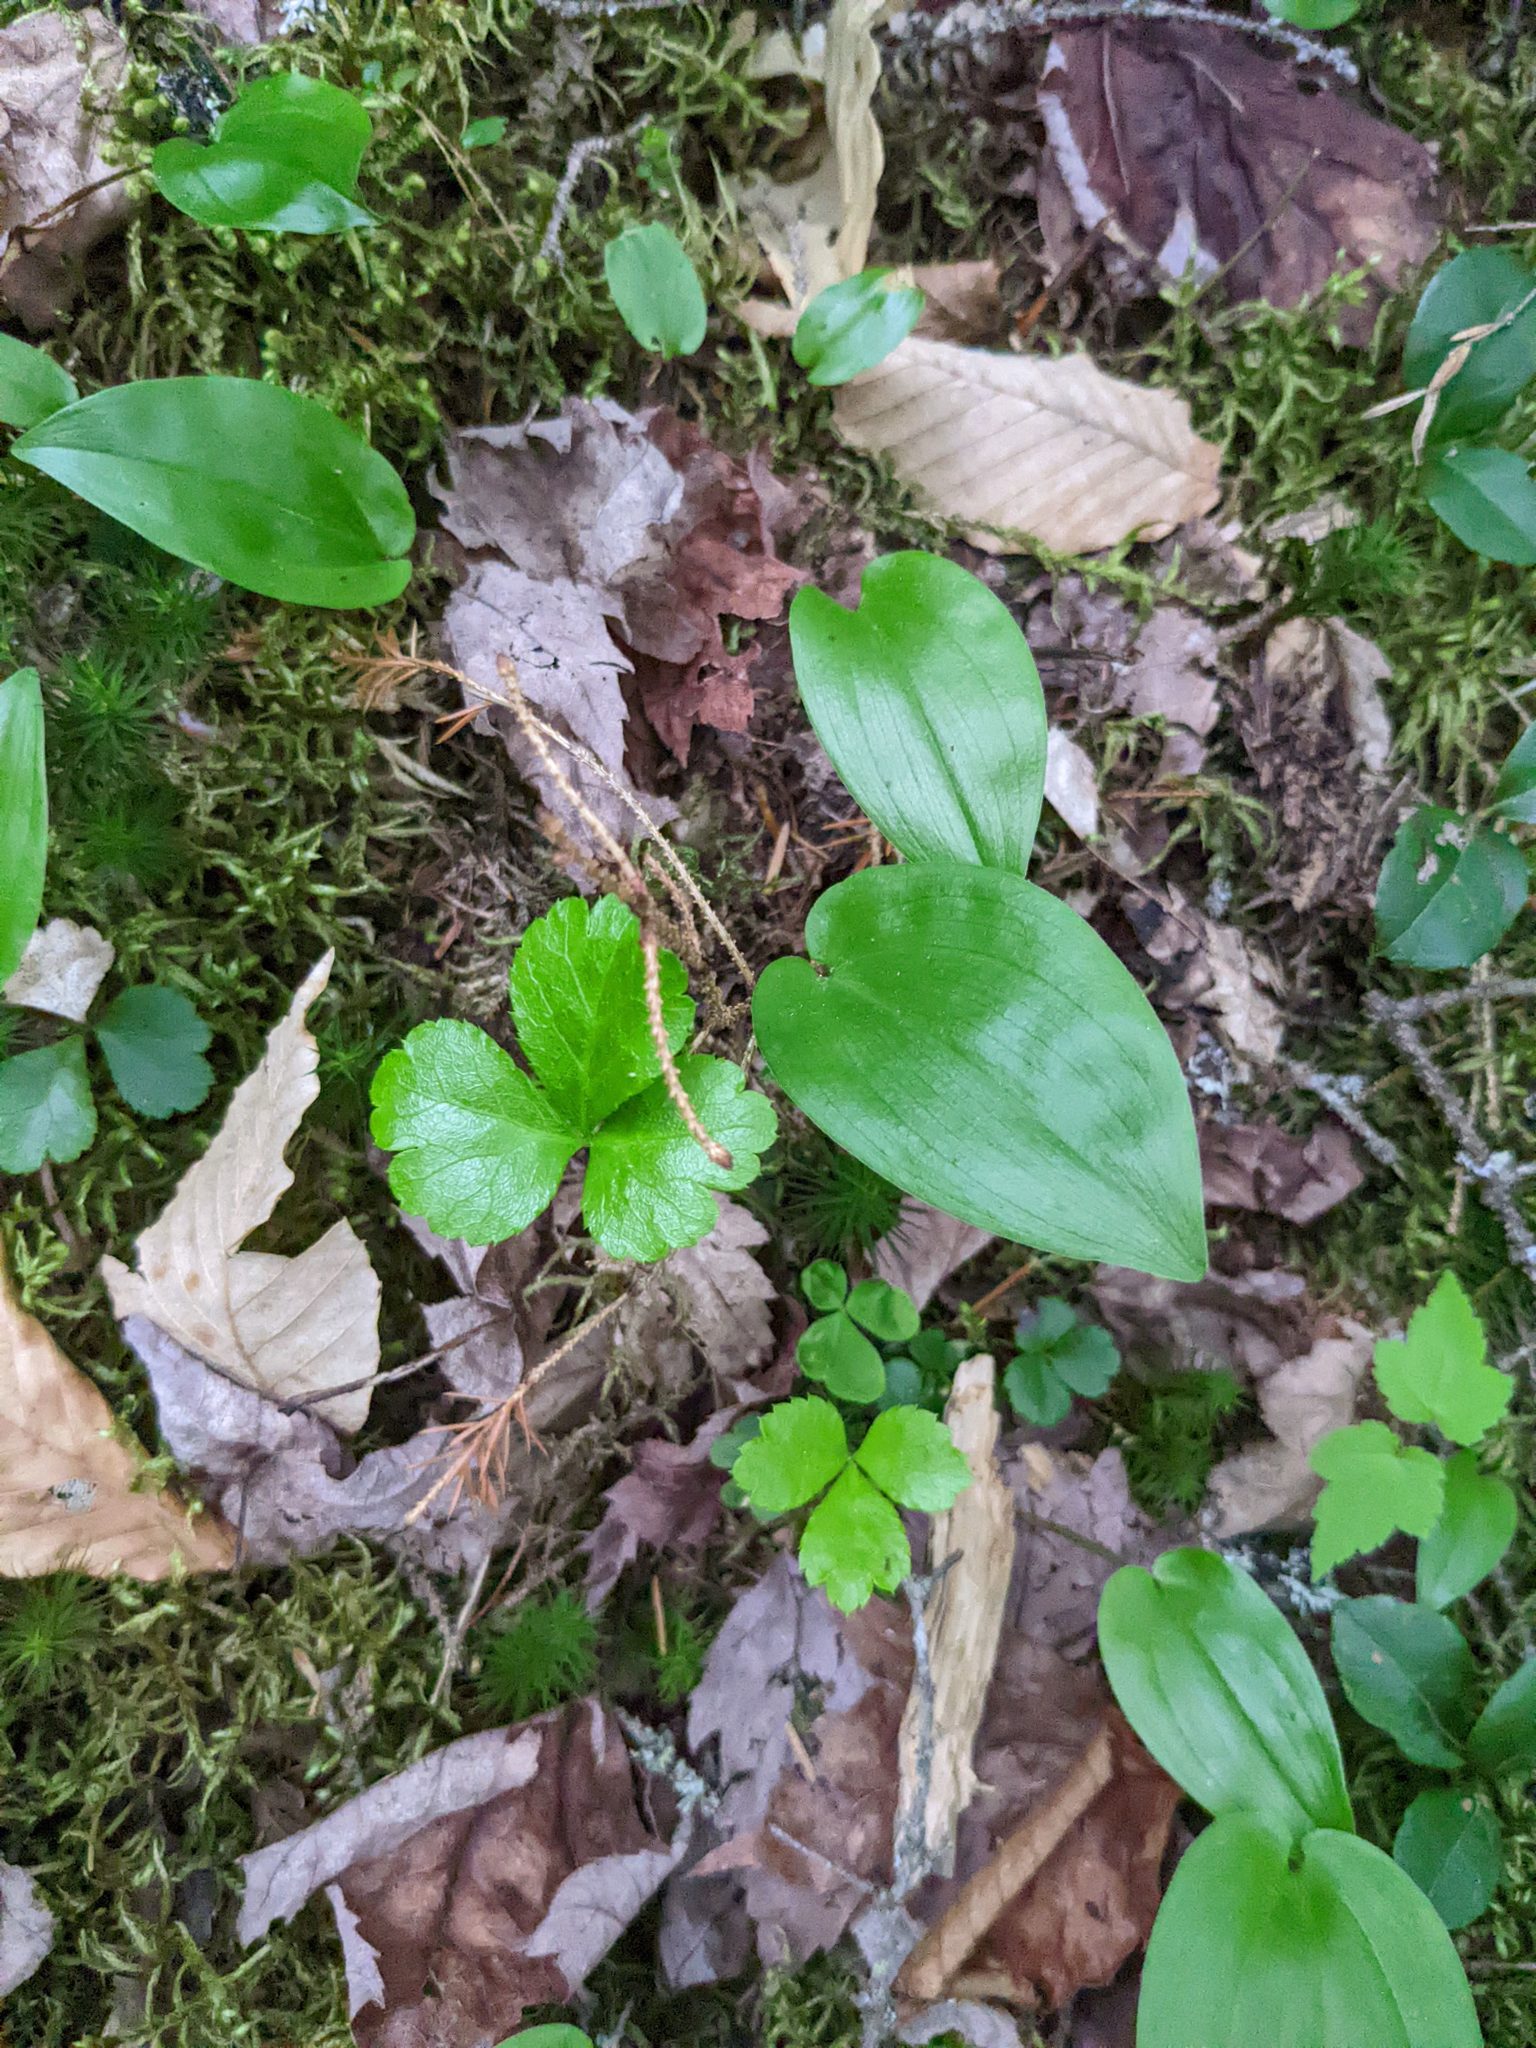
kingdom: Plantae
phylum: Tracheophyta
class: Magnoliopsida
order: Ranunculales
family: Ranunculaceae
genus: Coptis
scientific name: Coptis trifolia
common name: Canker-root
